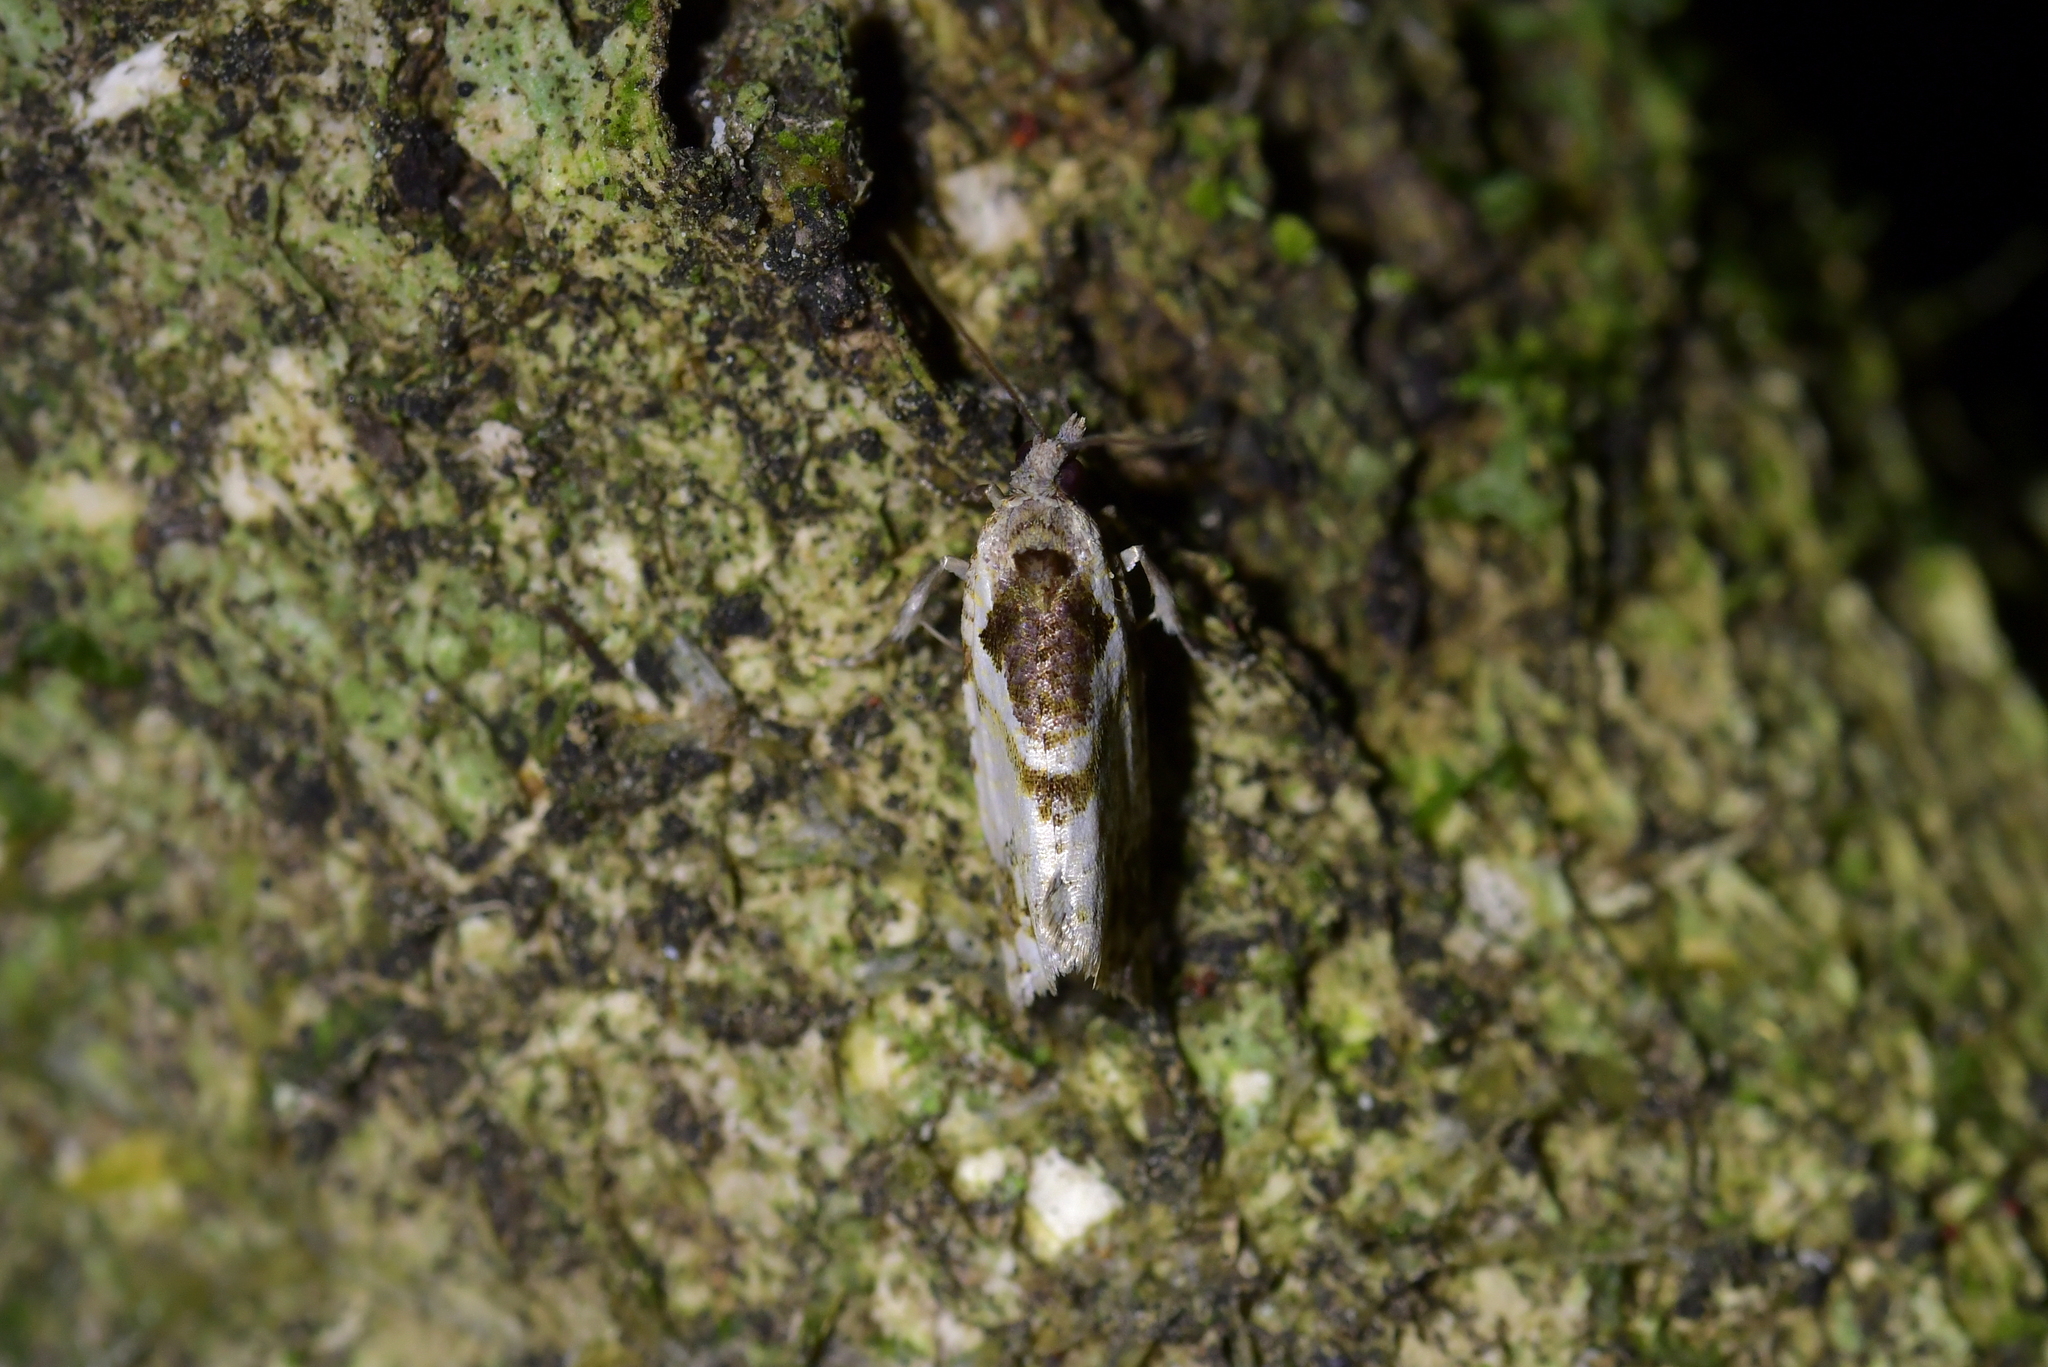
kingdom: Animalia
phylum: Arthropoda
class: Insecta
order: Lepidoptera
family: Tortricidae
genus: Pyrgotis
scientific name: Pyrgotis plagiatana
